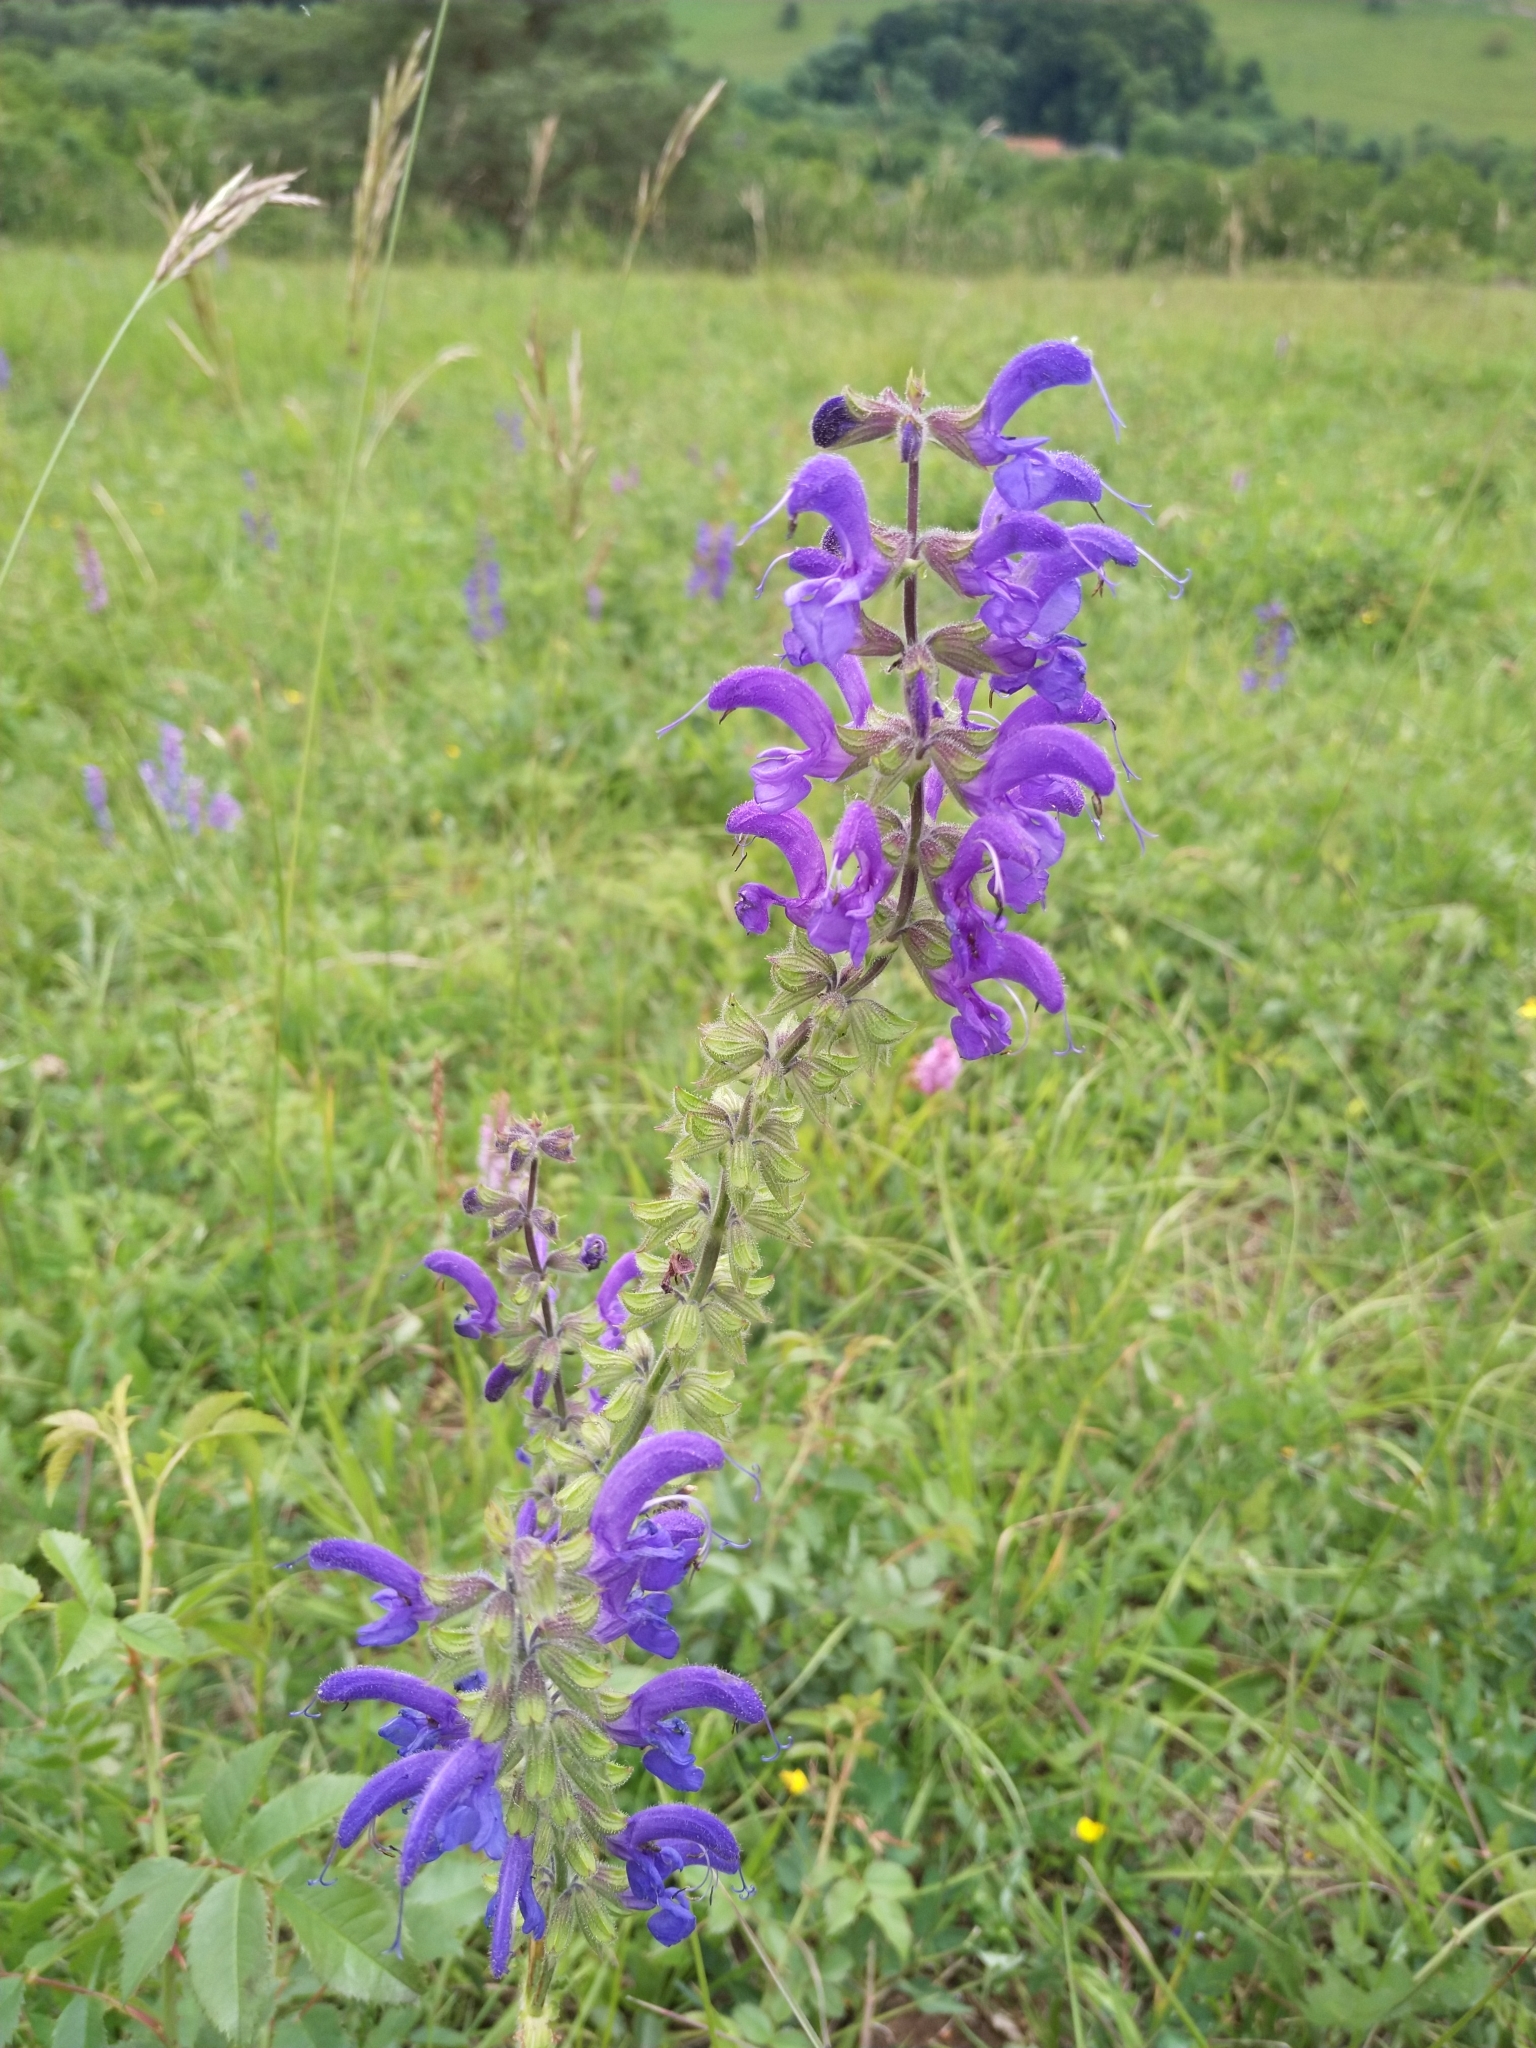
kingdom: Plantae
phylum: Tracheophyta
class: Magnoliopsida
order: Lamiales
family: Lamiaceae
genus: Salvia
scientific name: Salvia pratensis
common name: Meadow sage
